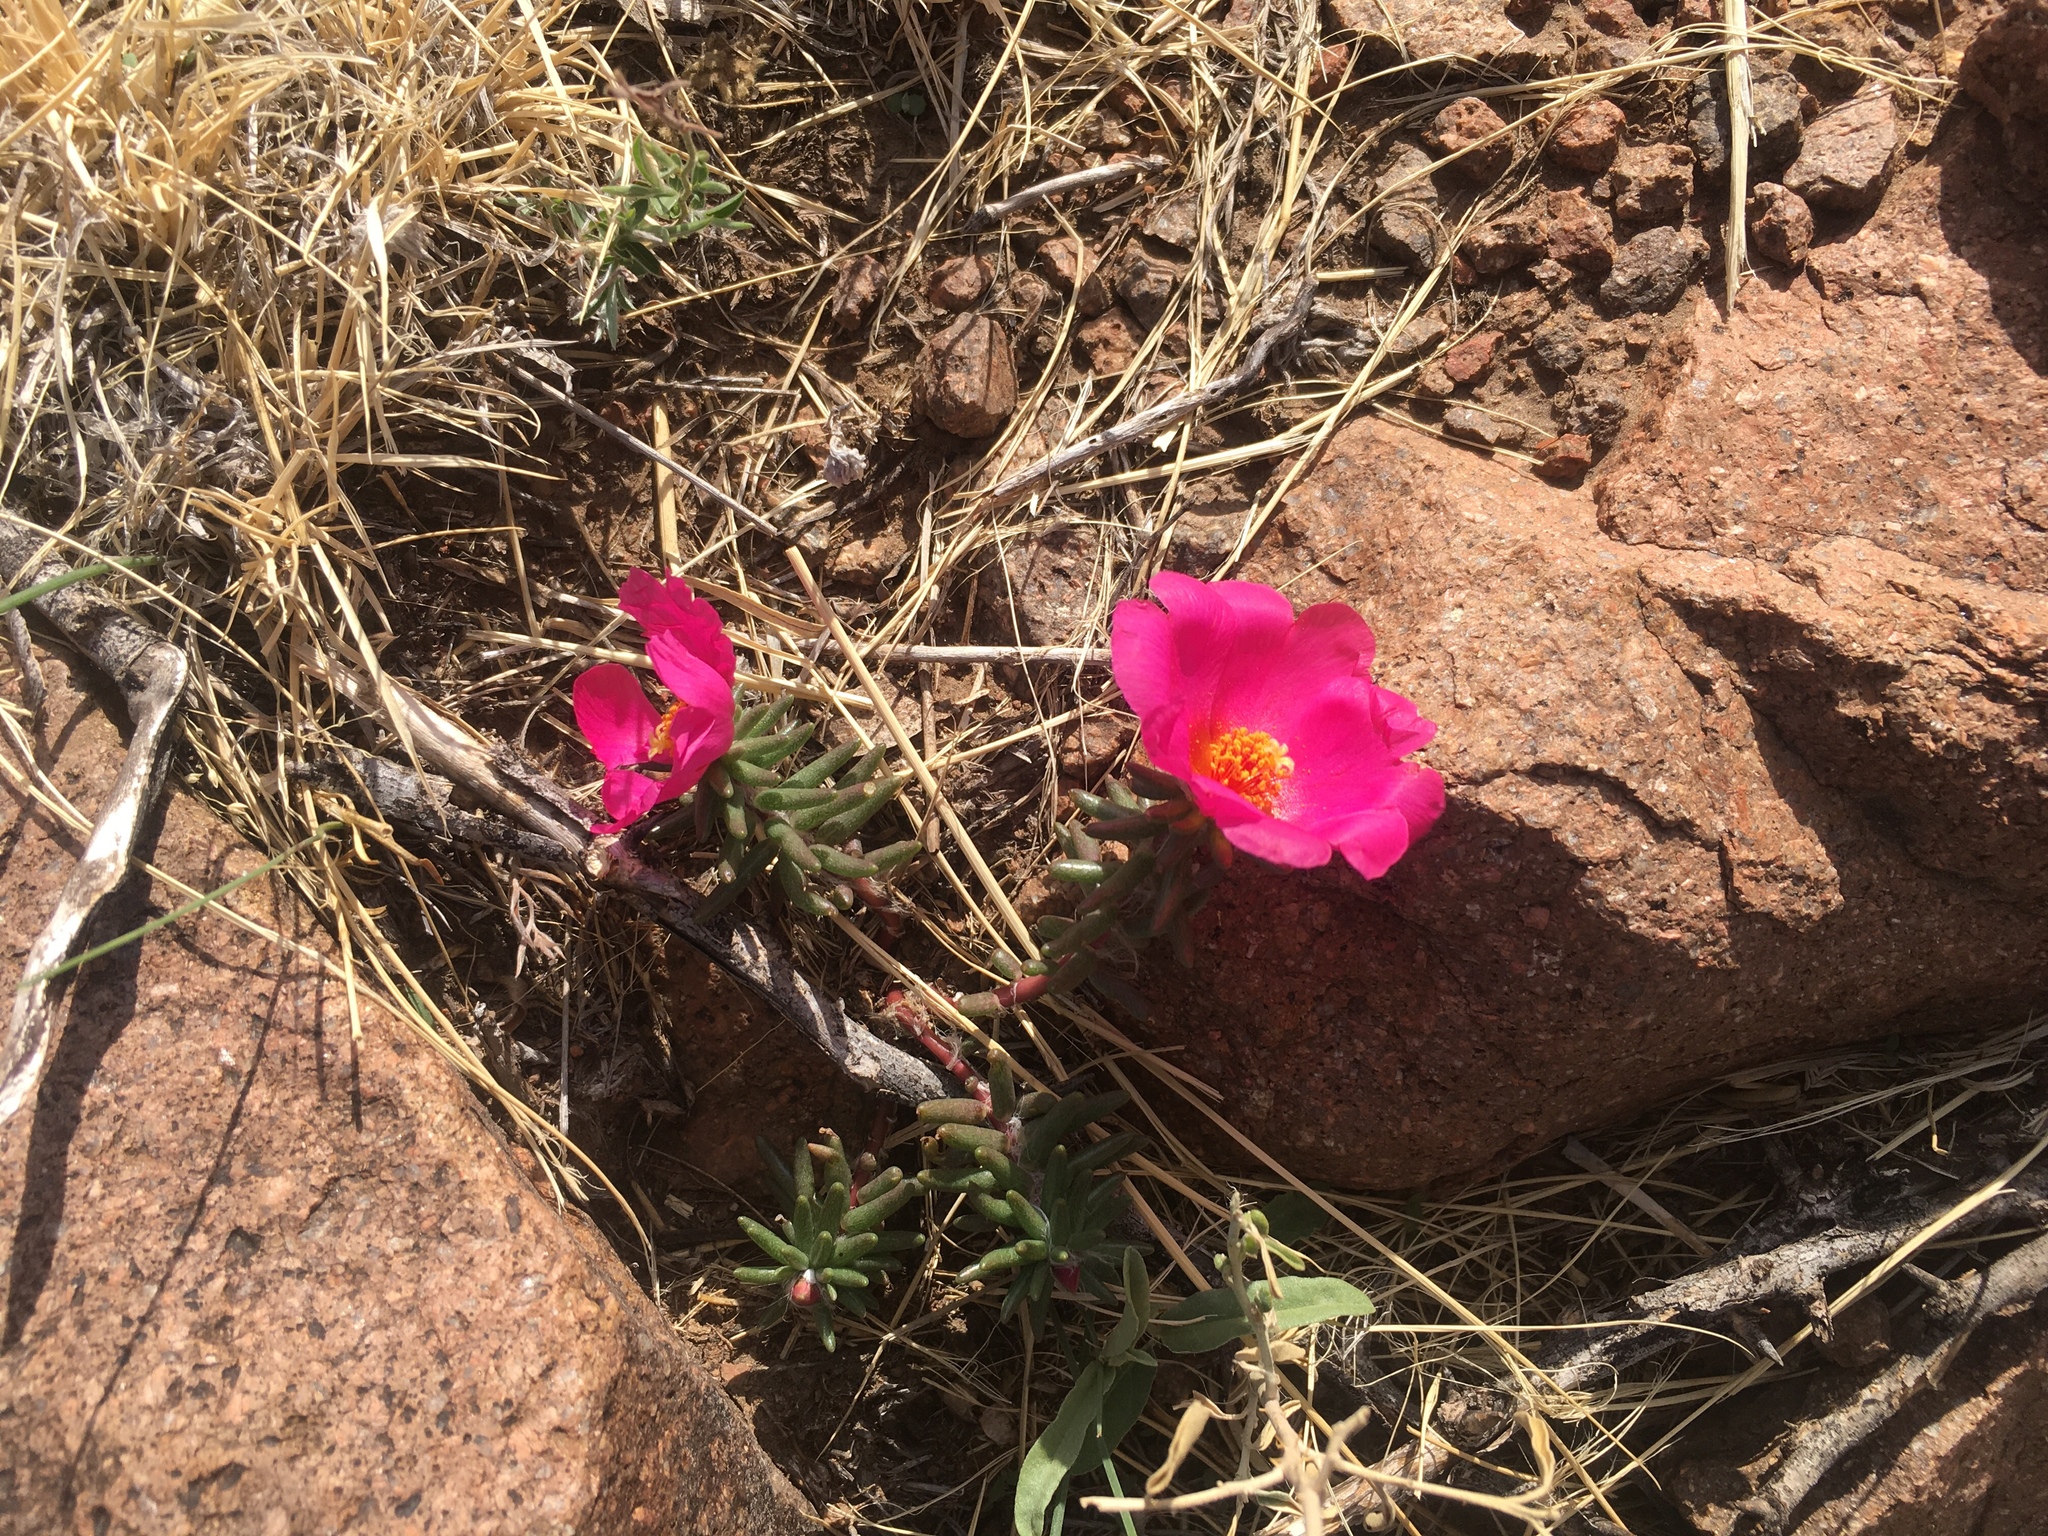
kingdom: Plantae
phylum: Tracheophyta
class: Magnoliopsida
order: Caryophyllales
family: Portulacaceae
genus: Portulaca
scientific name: Portulaca grandiflora
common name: Moss-rose
